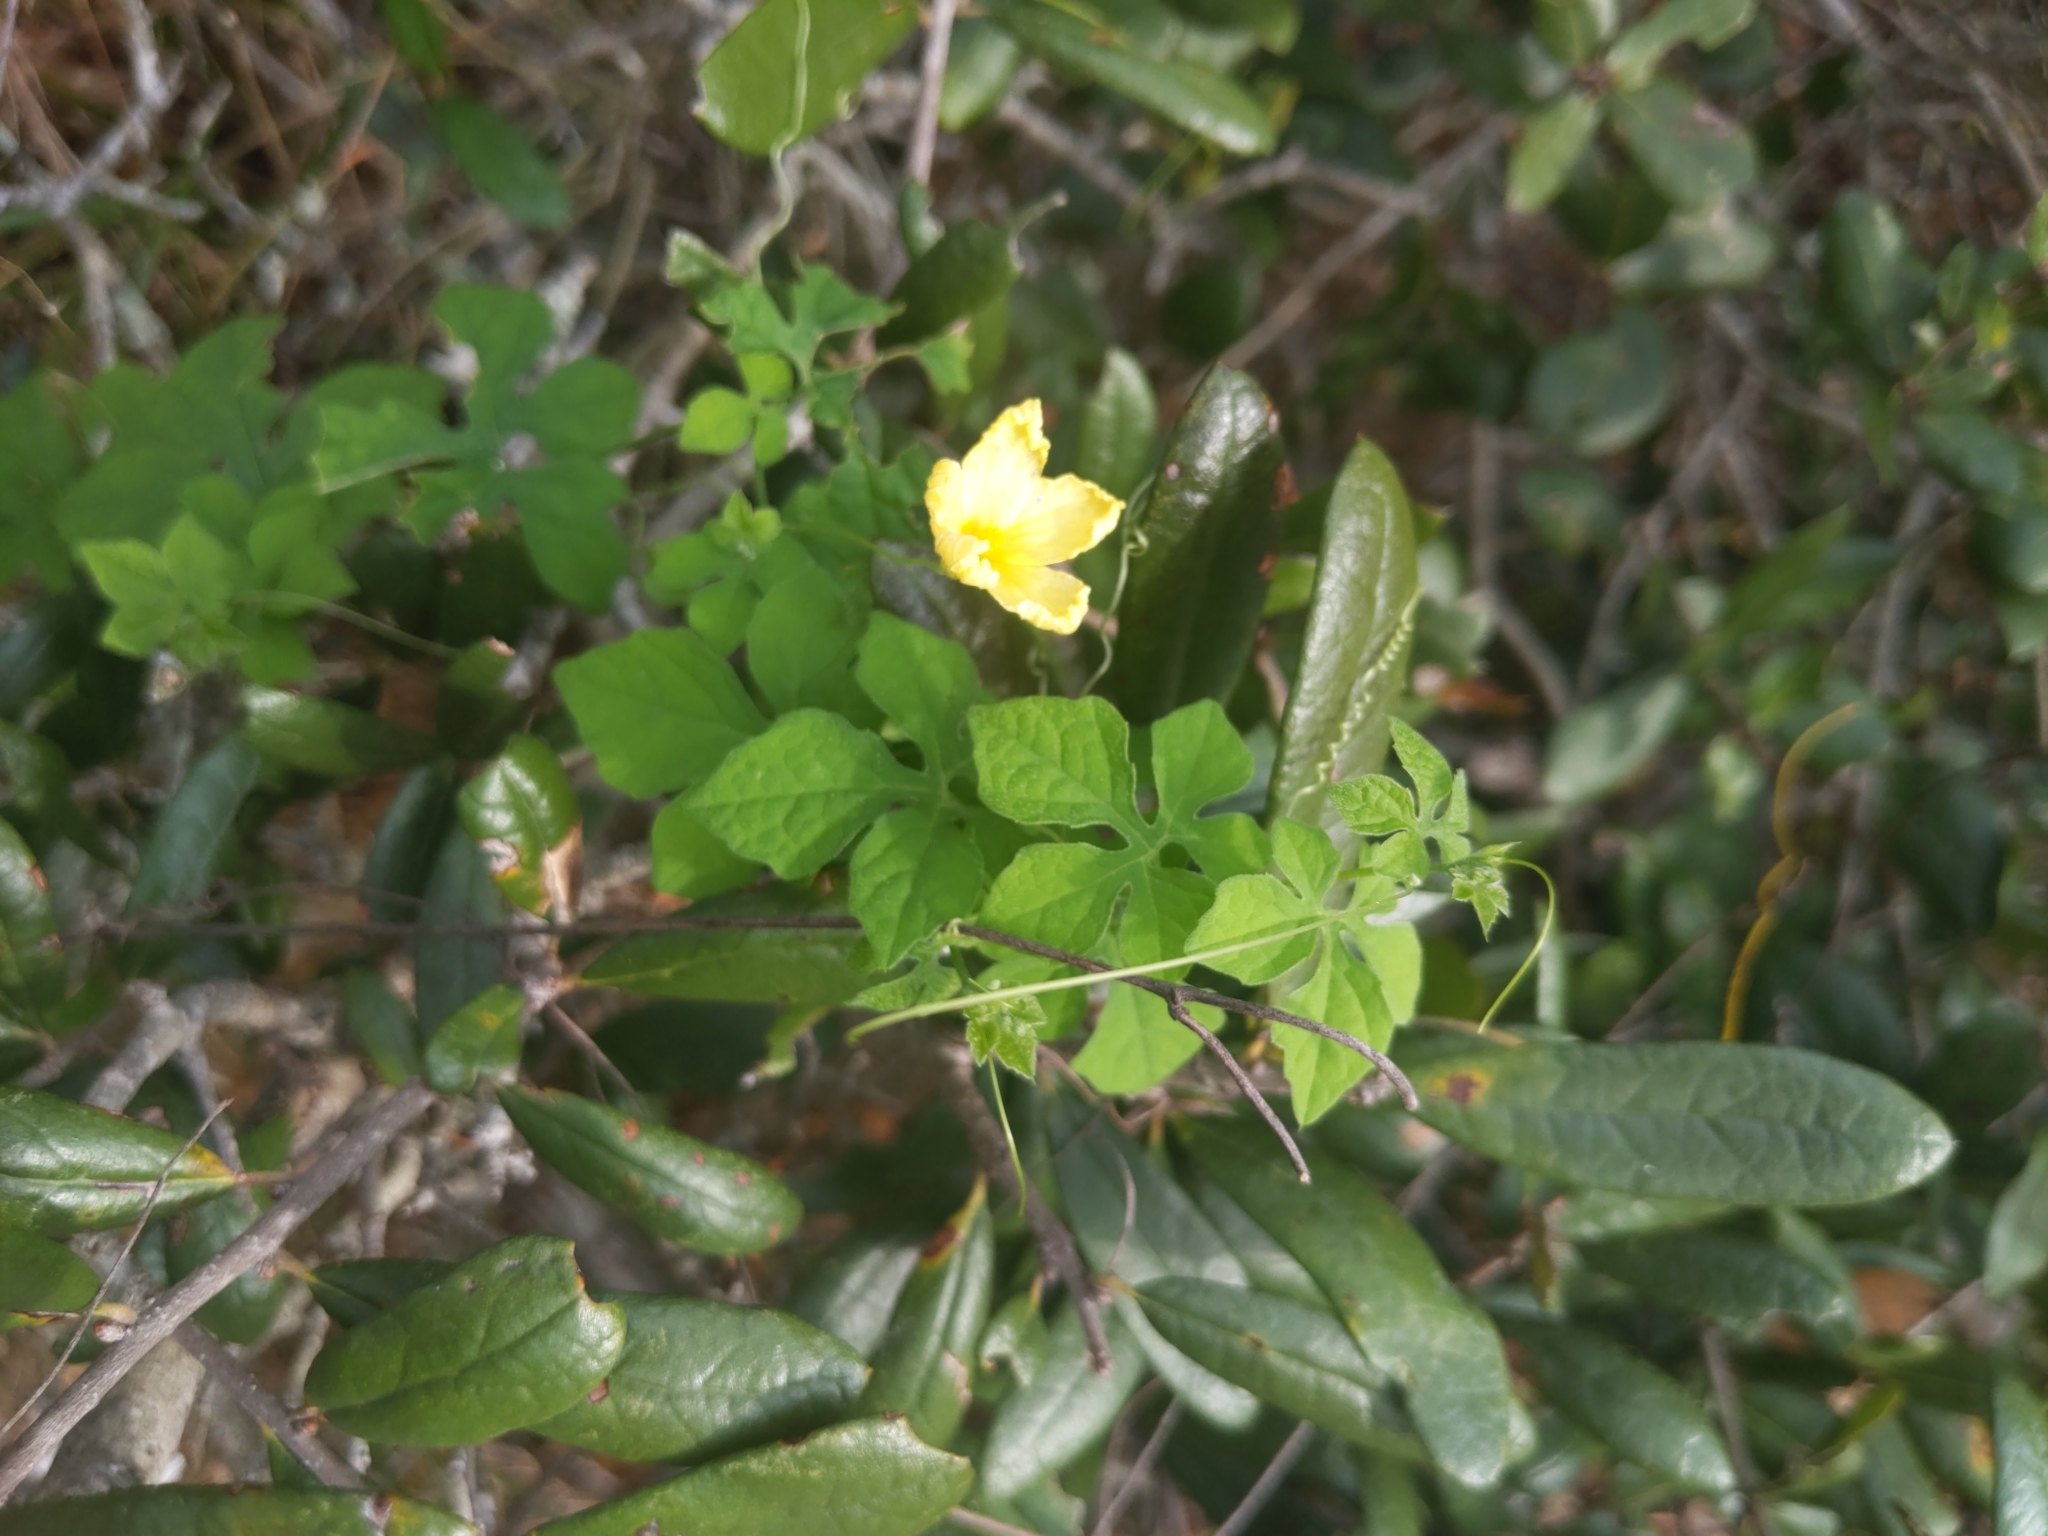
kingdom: Plantae
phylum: Tracheophyta
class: Magnoliopsida
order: Cucurbitales
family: Cucurbitaceae
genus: Momordica
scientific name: Momordica charantia
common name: Balsampear
